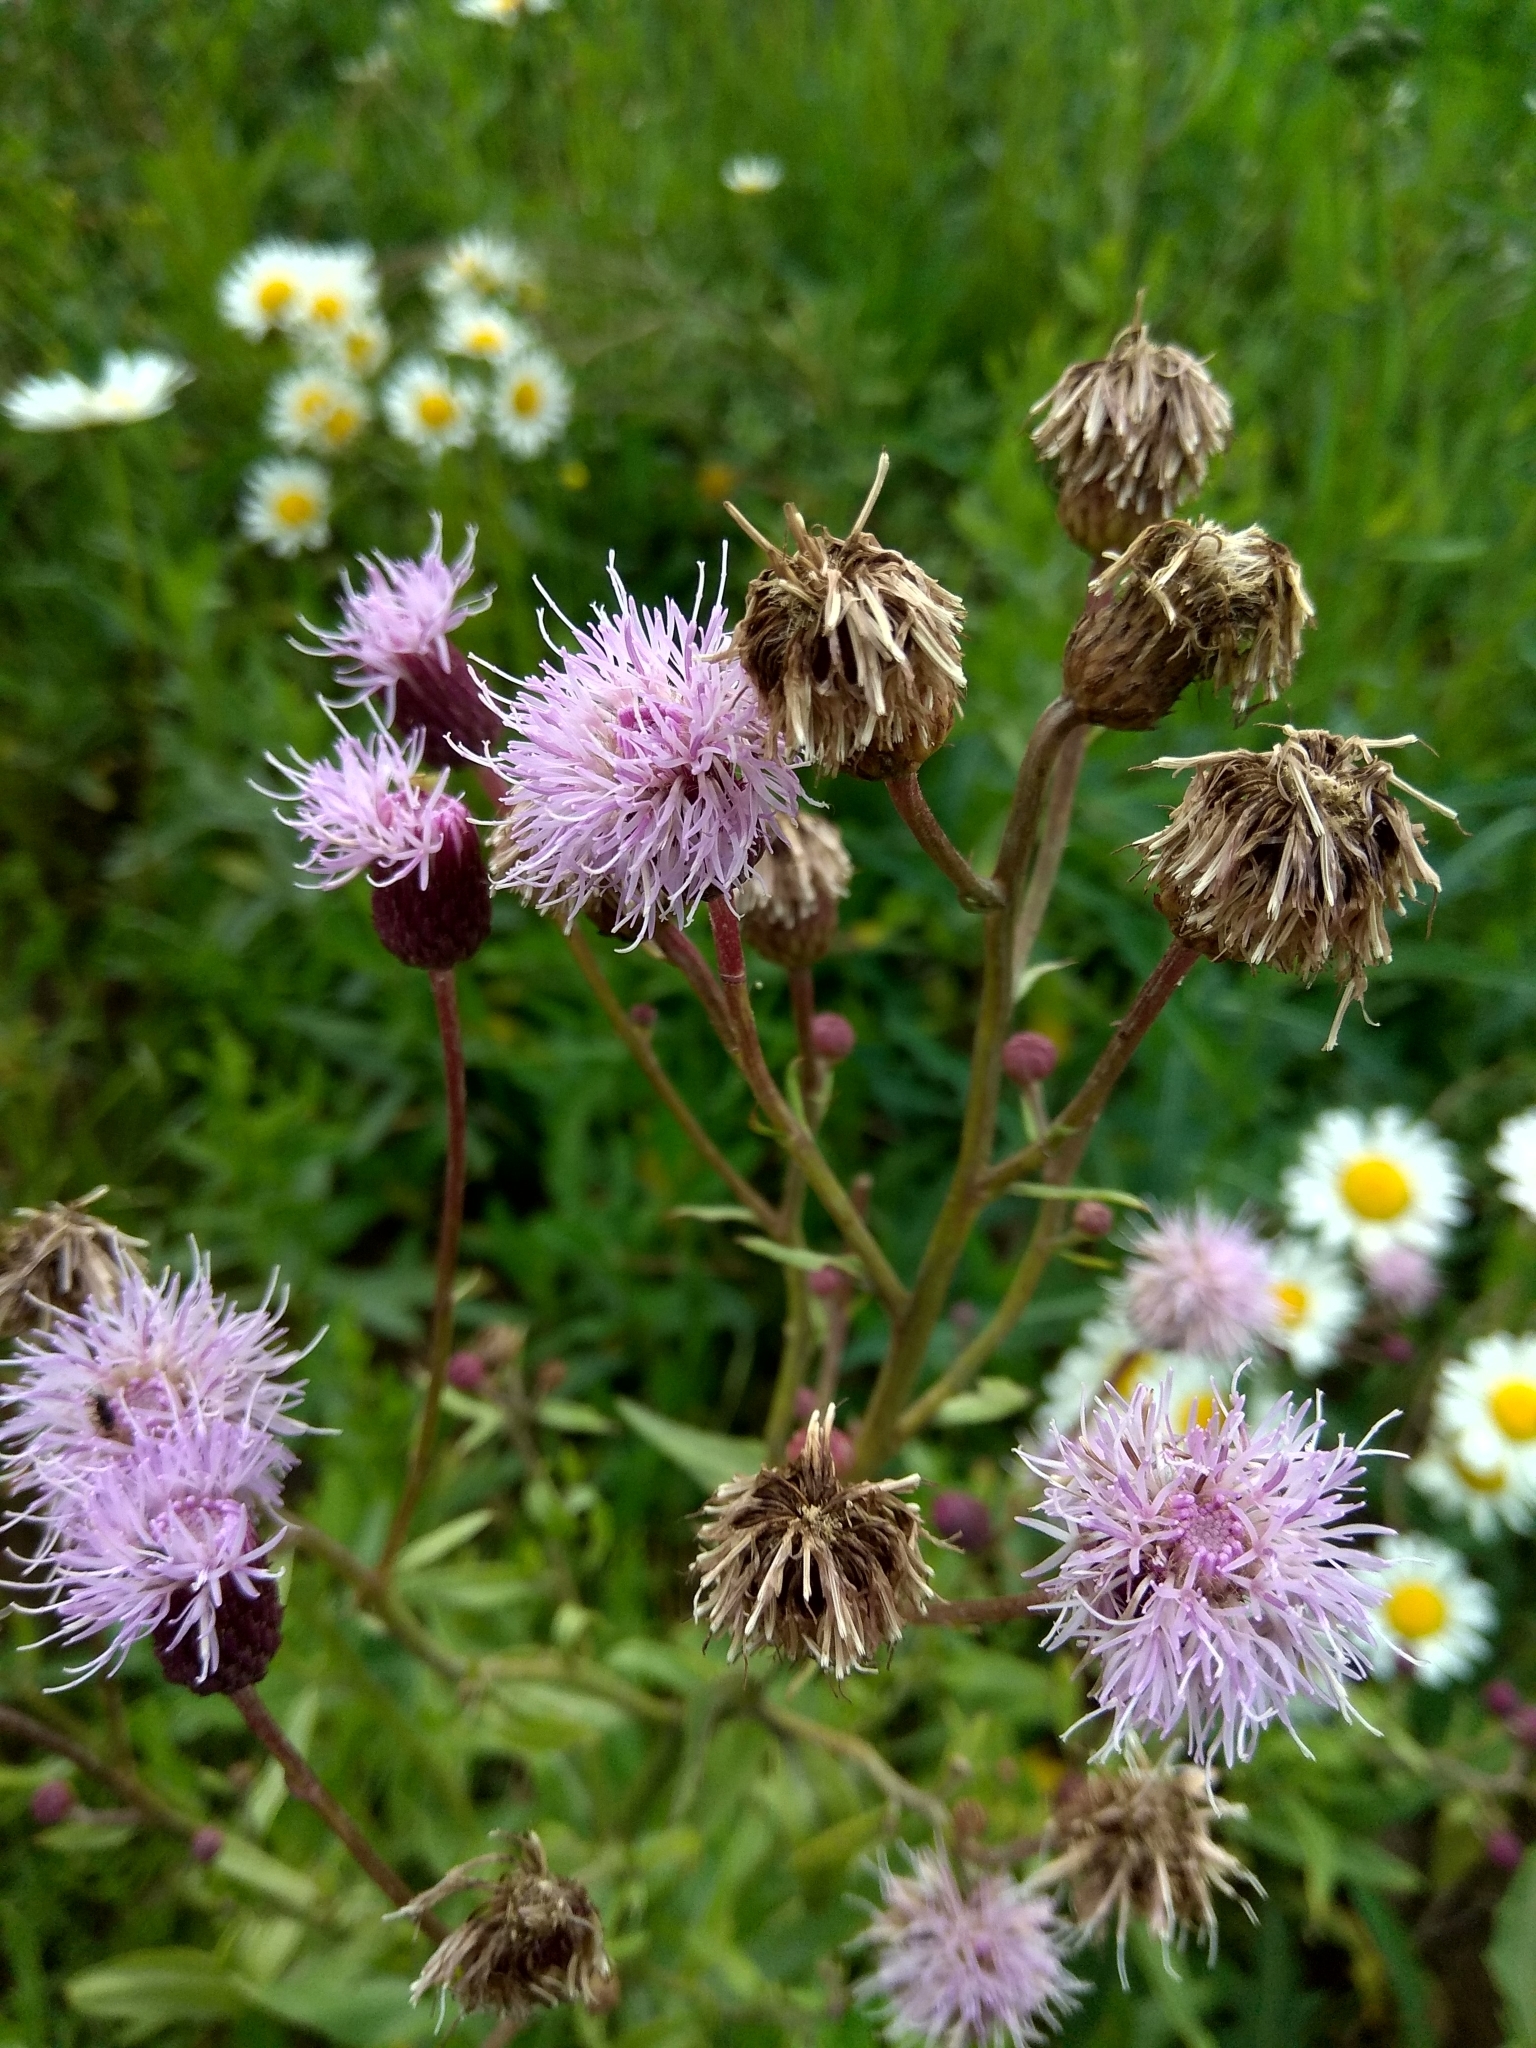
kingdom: Plantae
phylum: Tracheophyta
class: Magnoliopsida
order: Asterales
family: Asteraceae
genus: Cirsium
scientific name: Cirsium arvense
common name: Creeping thistle
